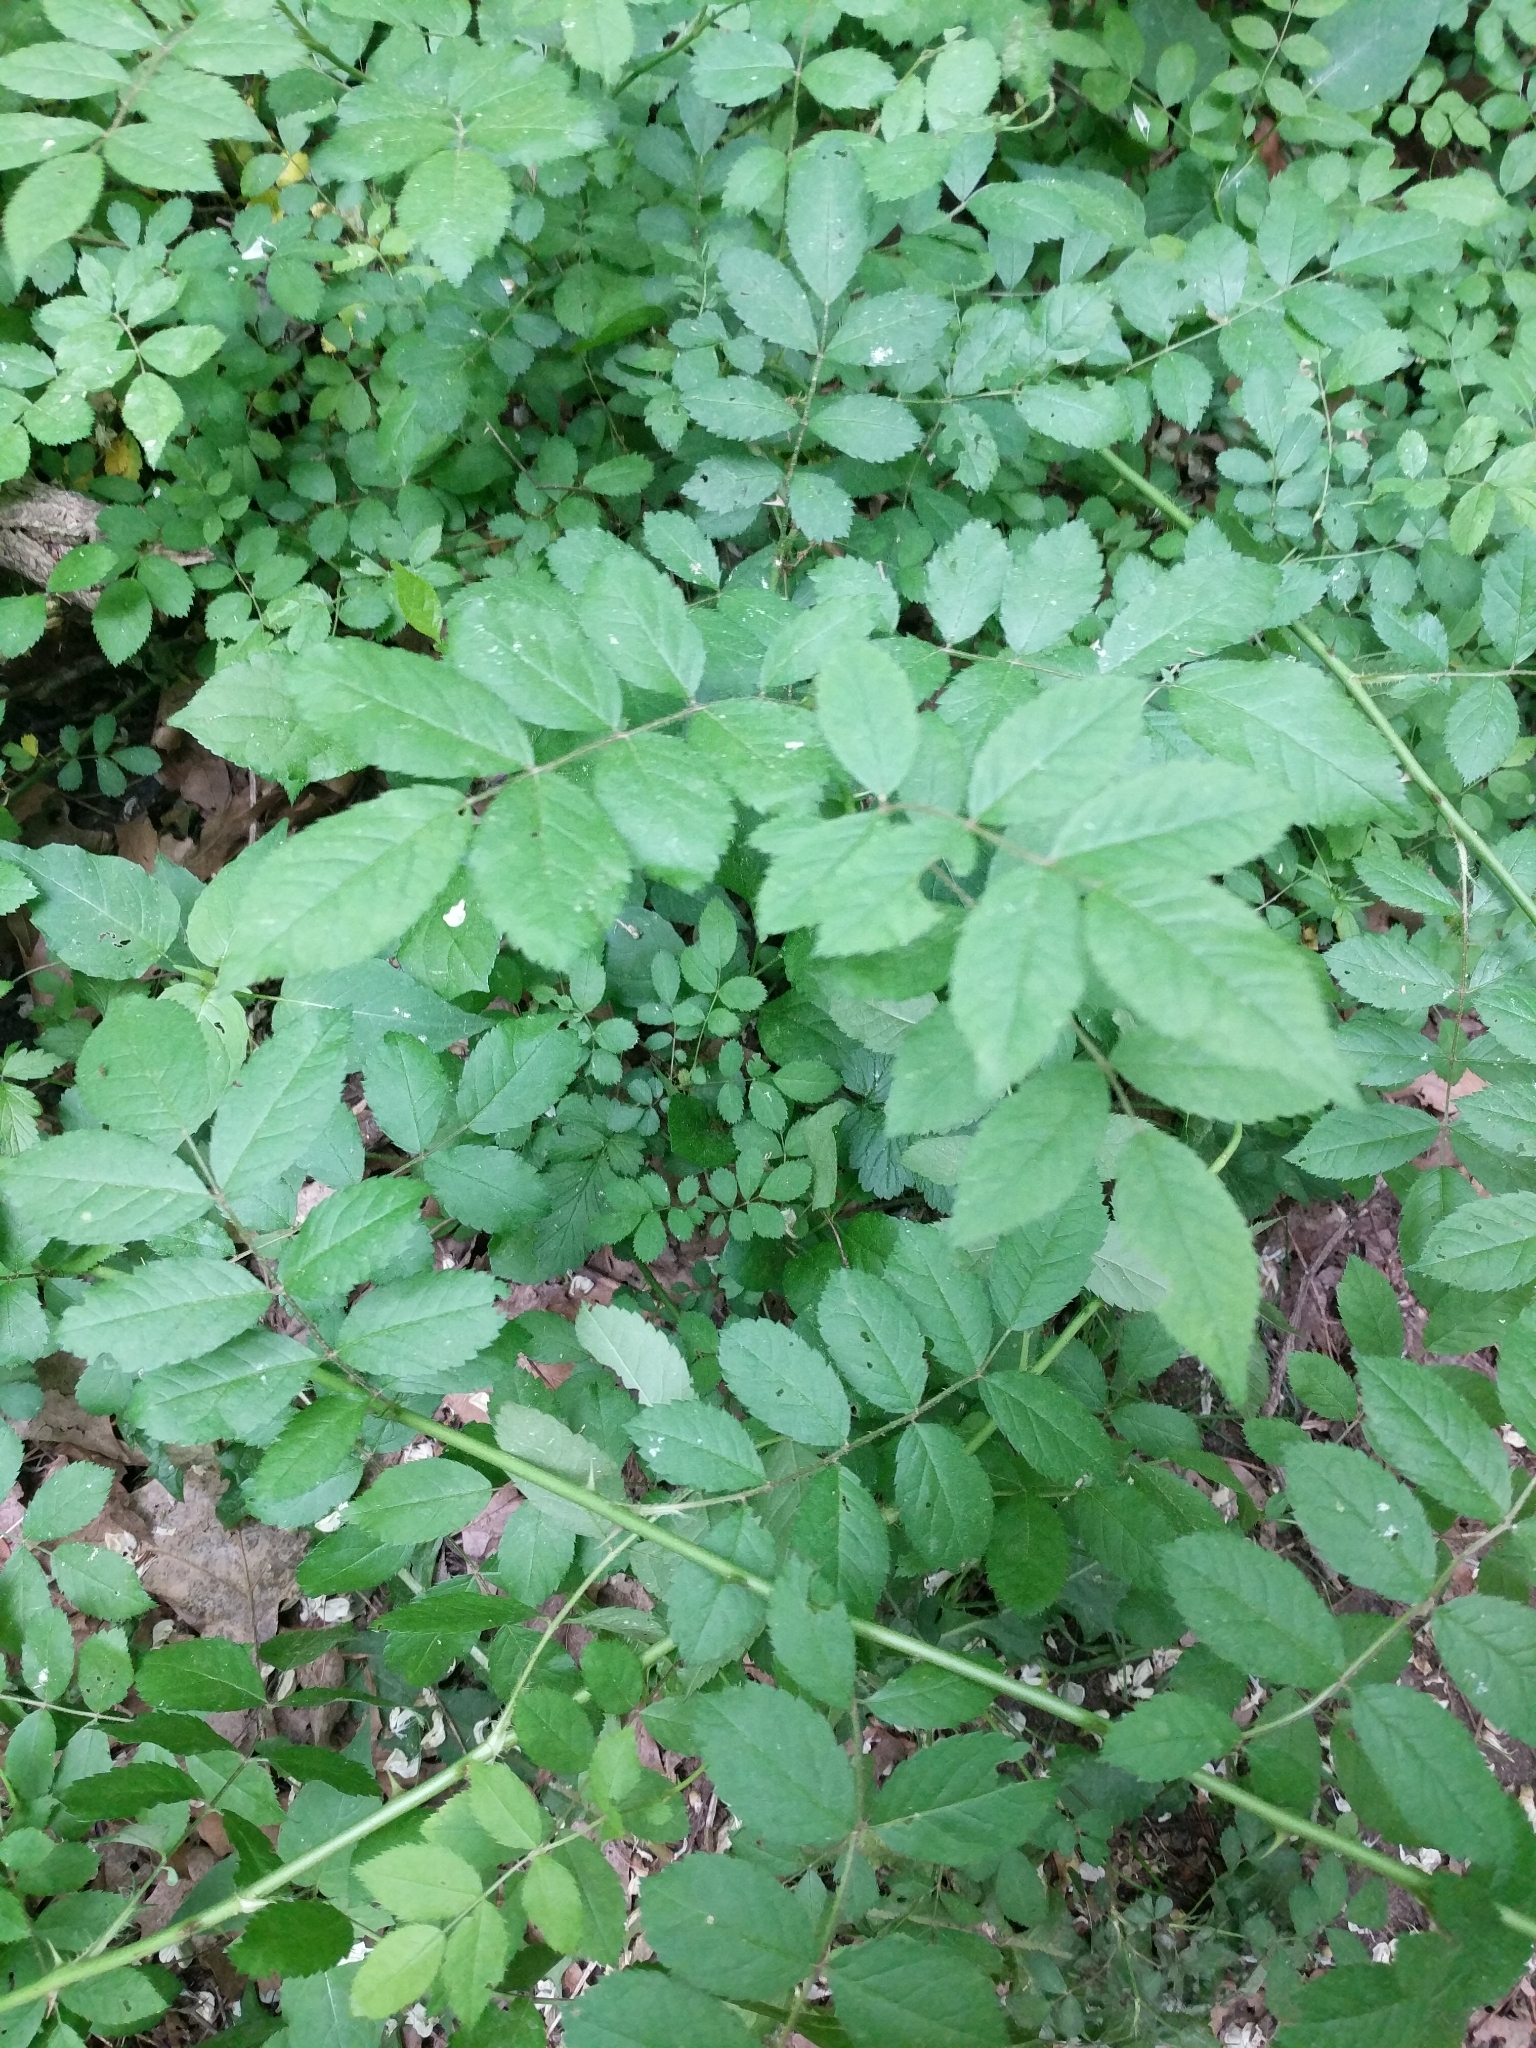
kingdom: Plantae
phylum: Tracheophyta
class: Magnoliopsida
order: Rosales
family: Rosaceae
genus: Rosa
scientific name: Rosa multiflora
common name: Multiflora rose
